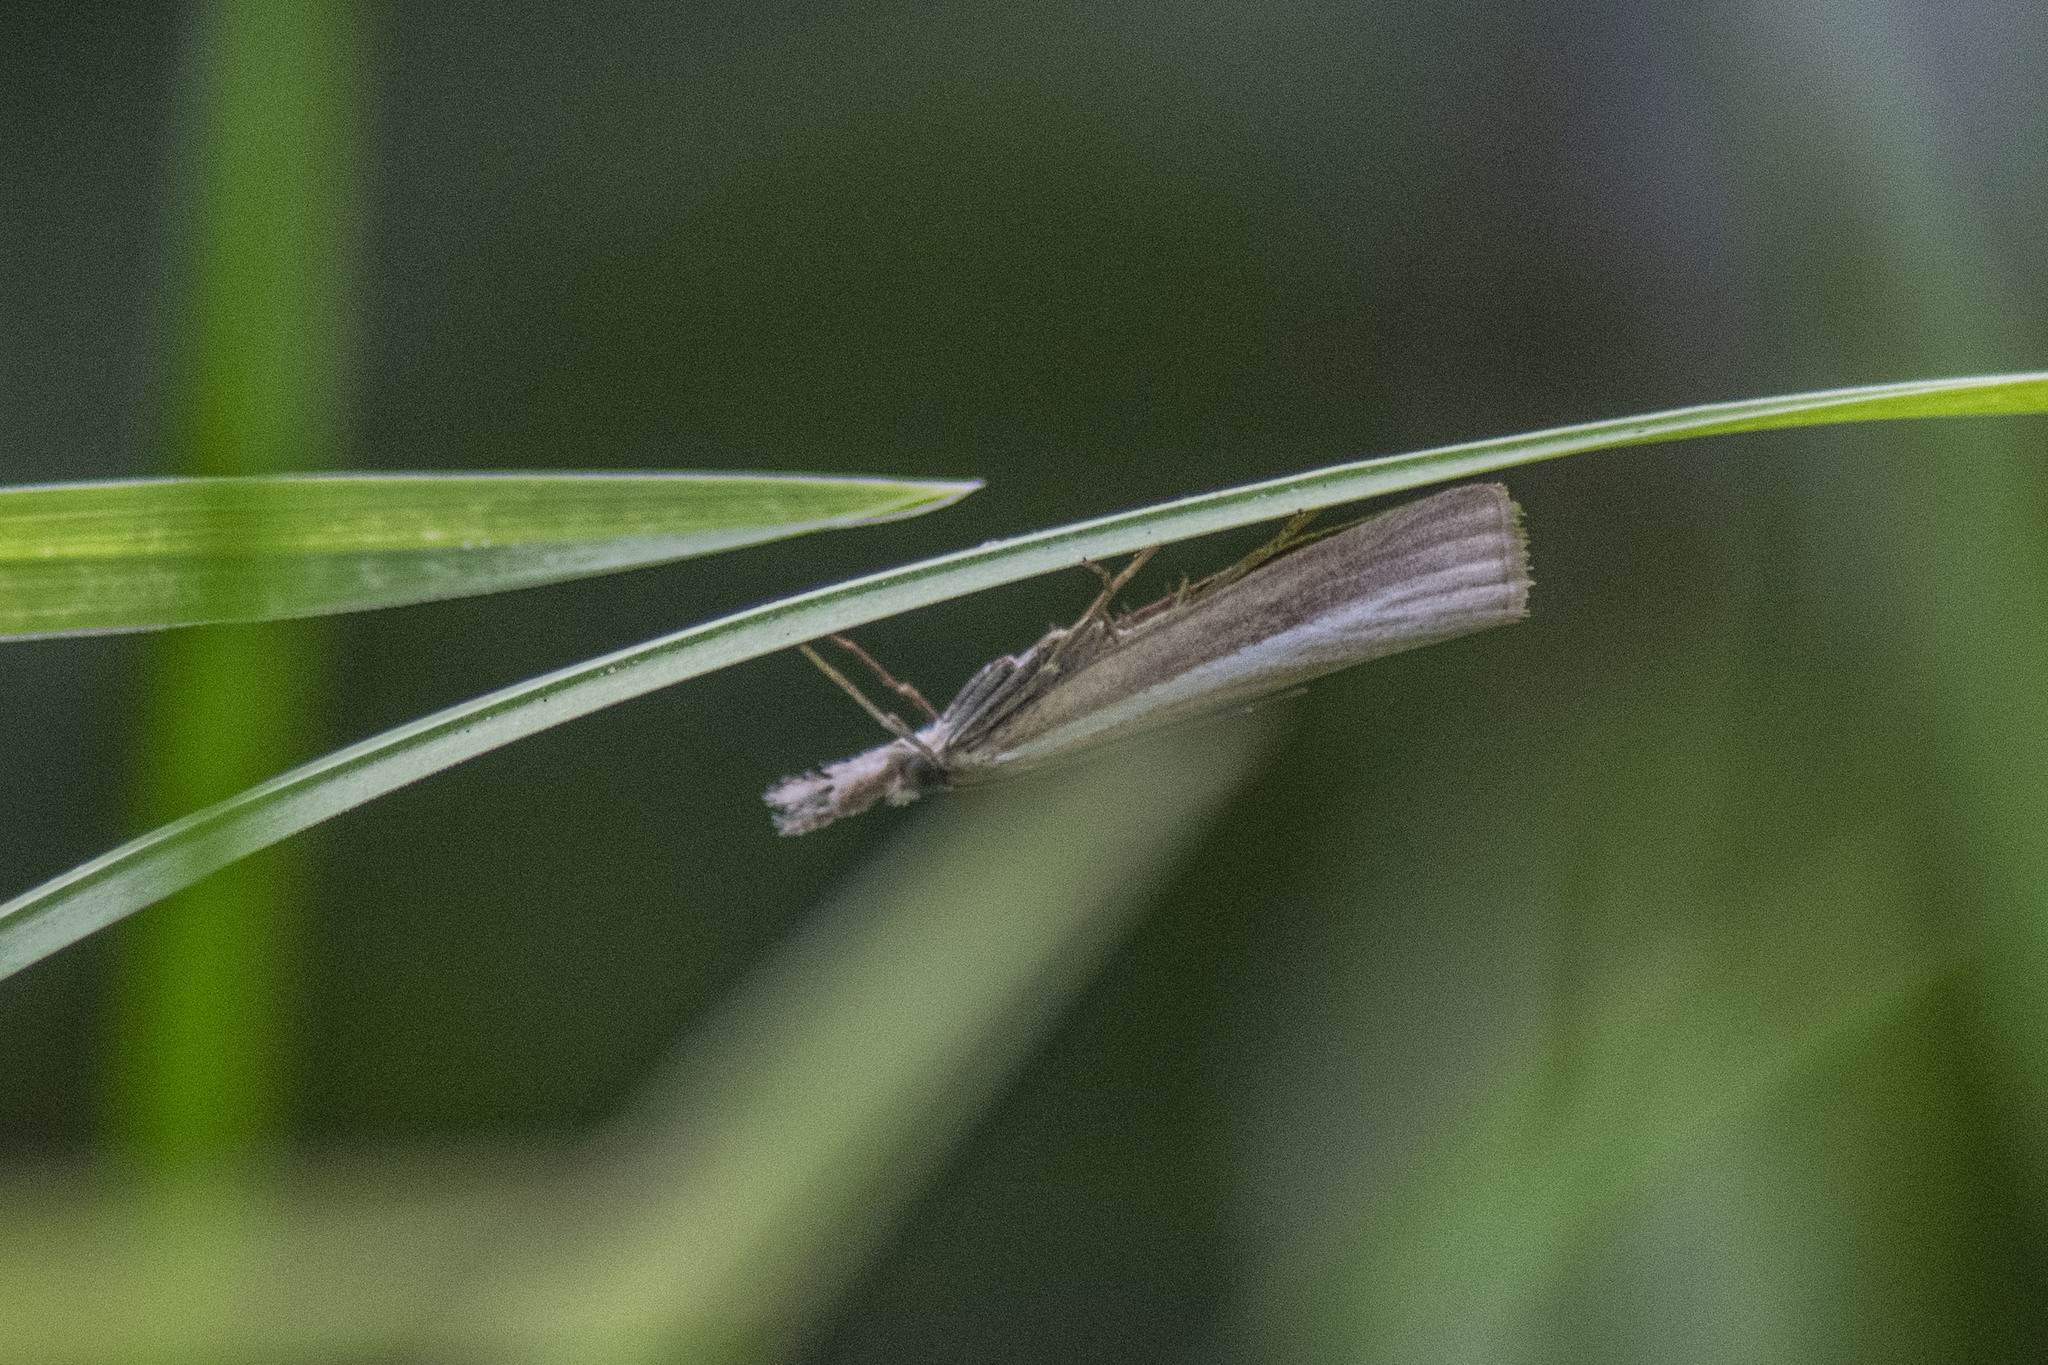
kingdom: Animalia
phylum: Arthropoda
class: Insecta
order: Lepidoptera
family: Crambidae
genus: Agriphila
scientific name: Agriphila selasella
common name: Pale-streak grass-veneer
